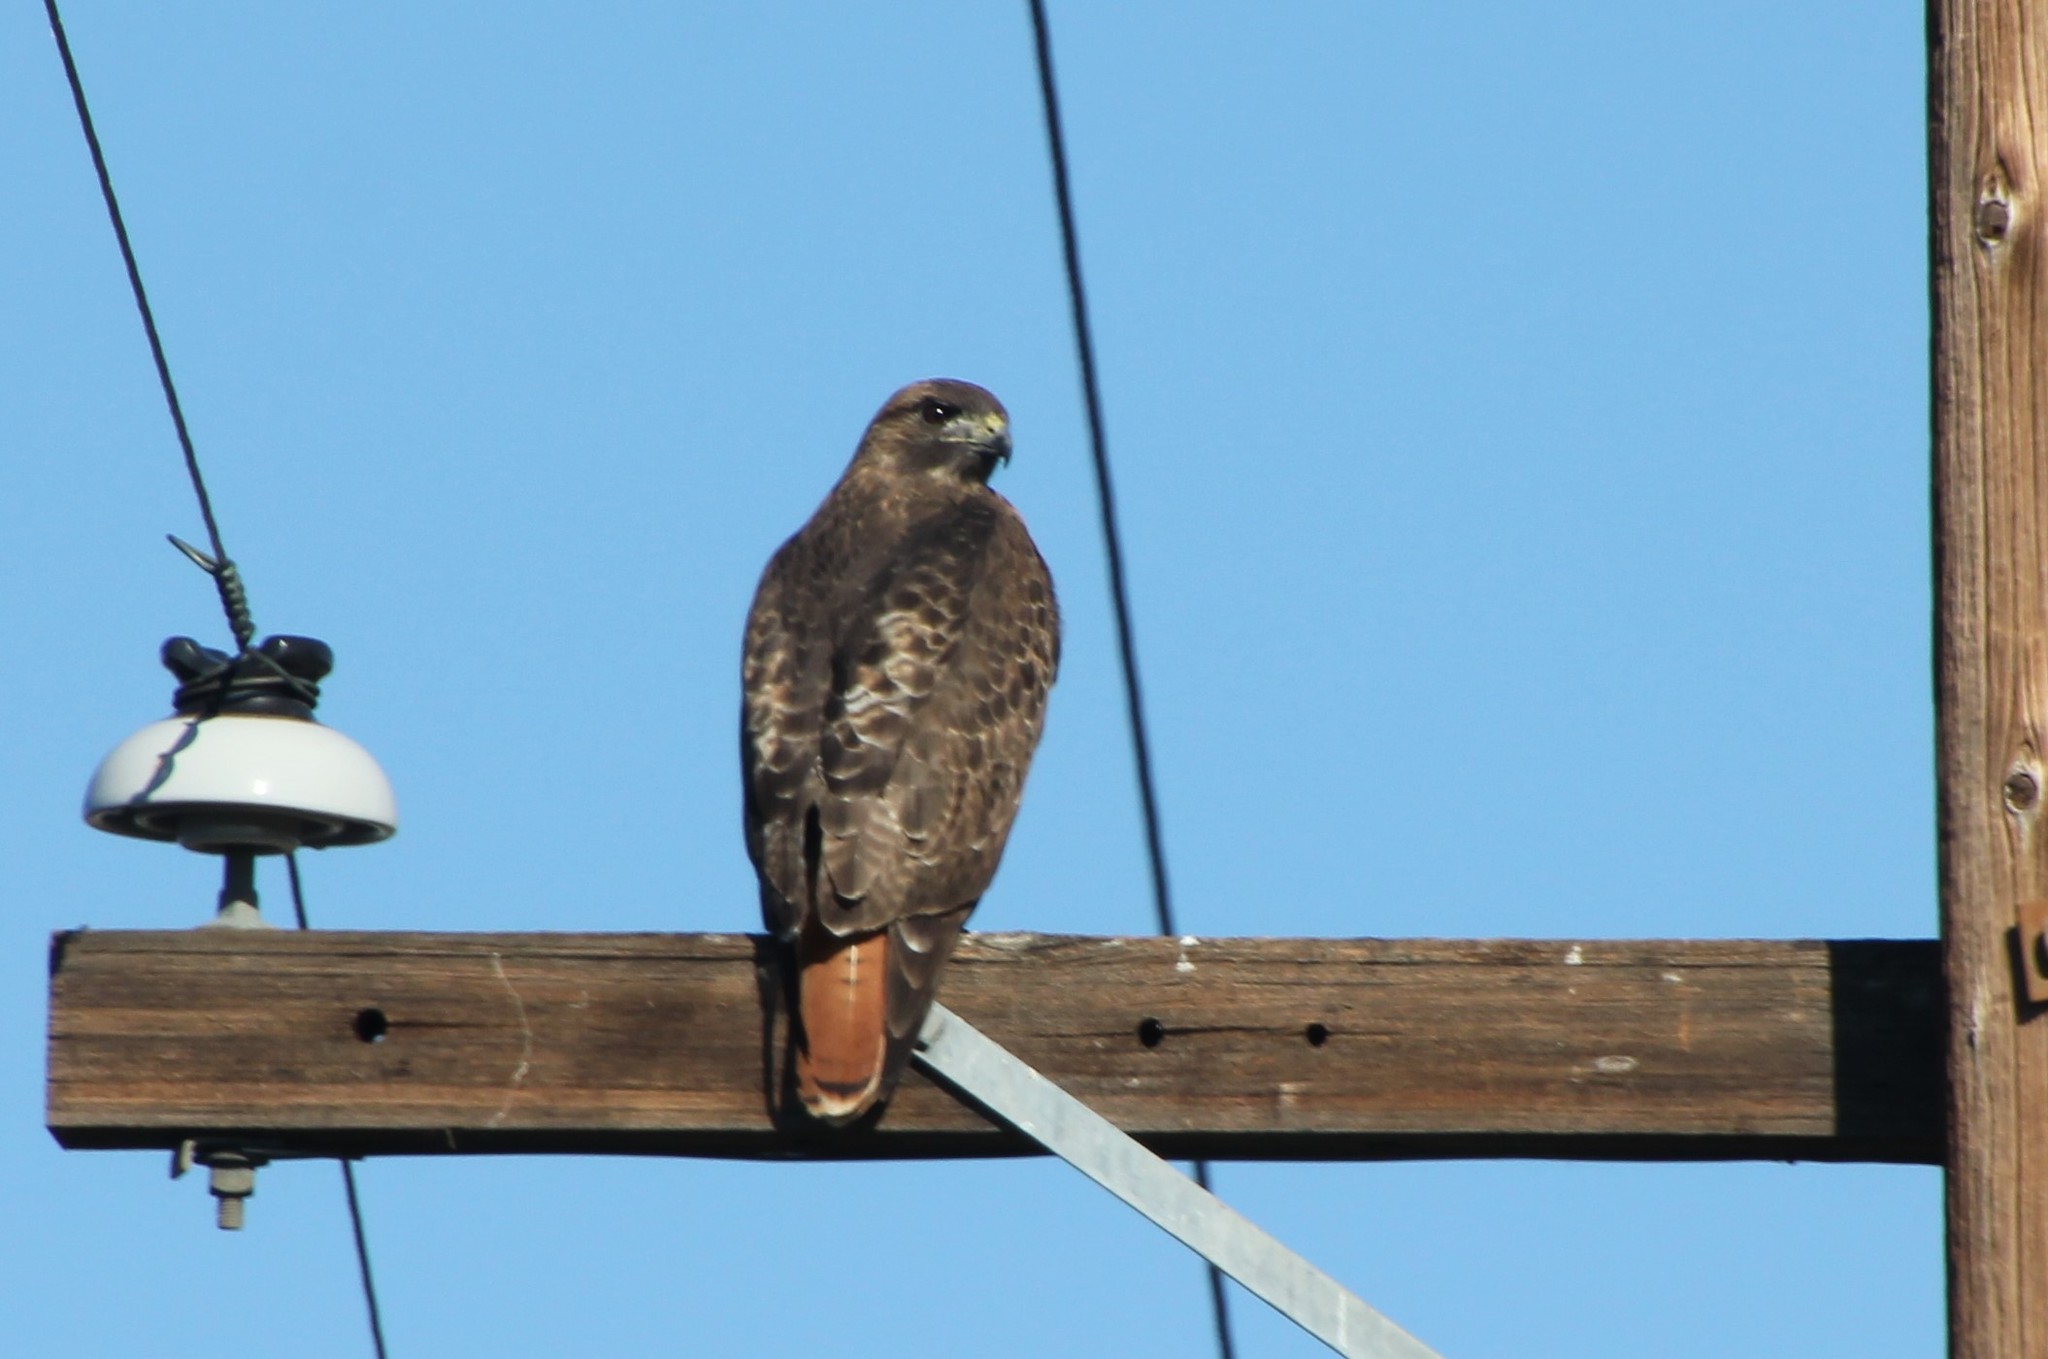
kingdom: Animalia
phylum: Chordata
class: Aves
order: Accipitriformes
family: Accipitridae
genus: Buteo
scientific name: Buteo jamaicensis
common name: Red-tailed hawk
